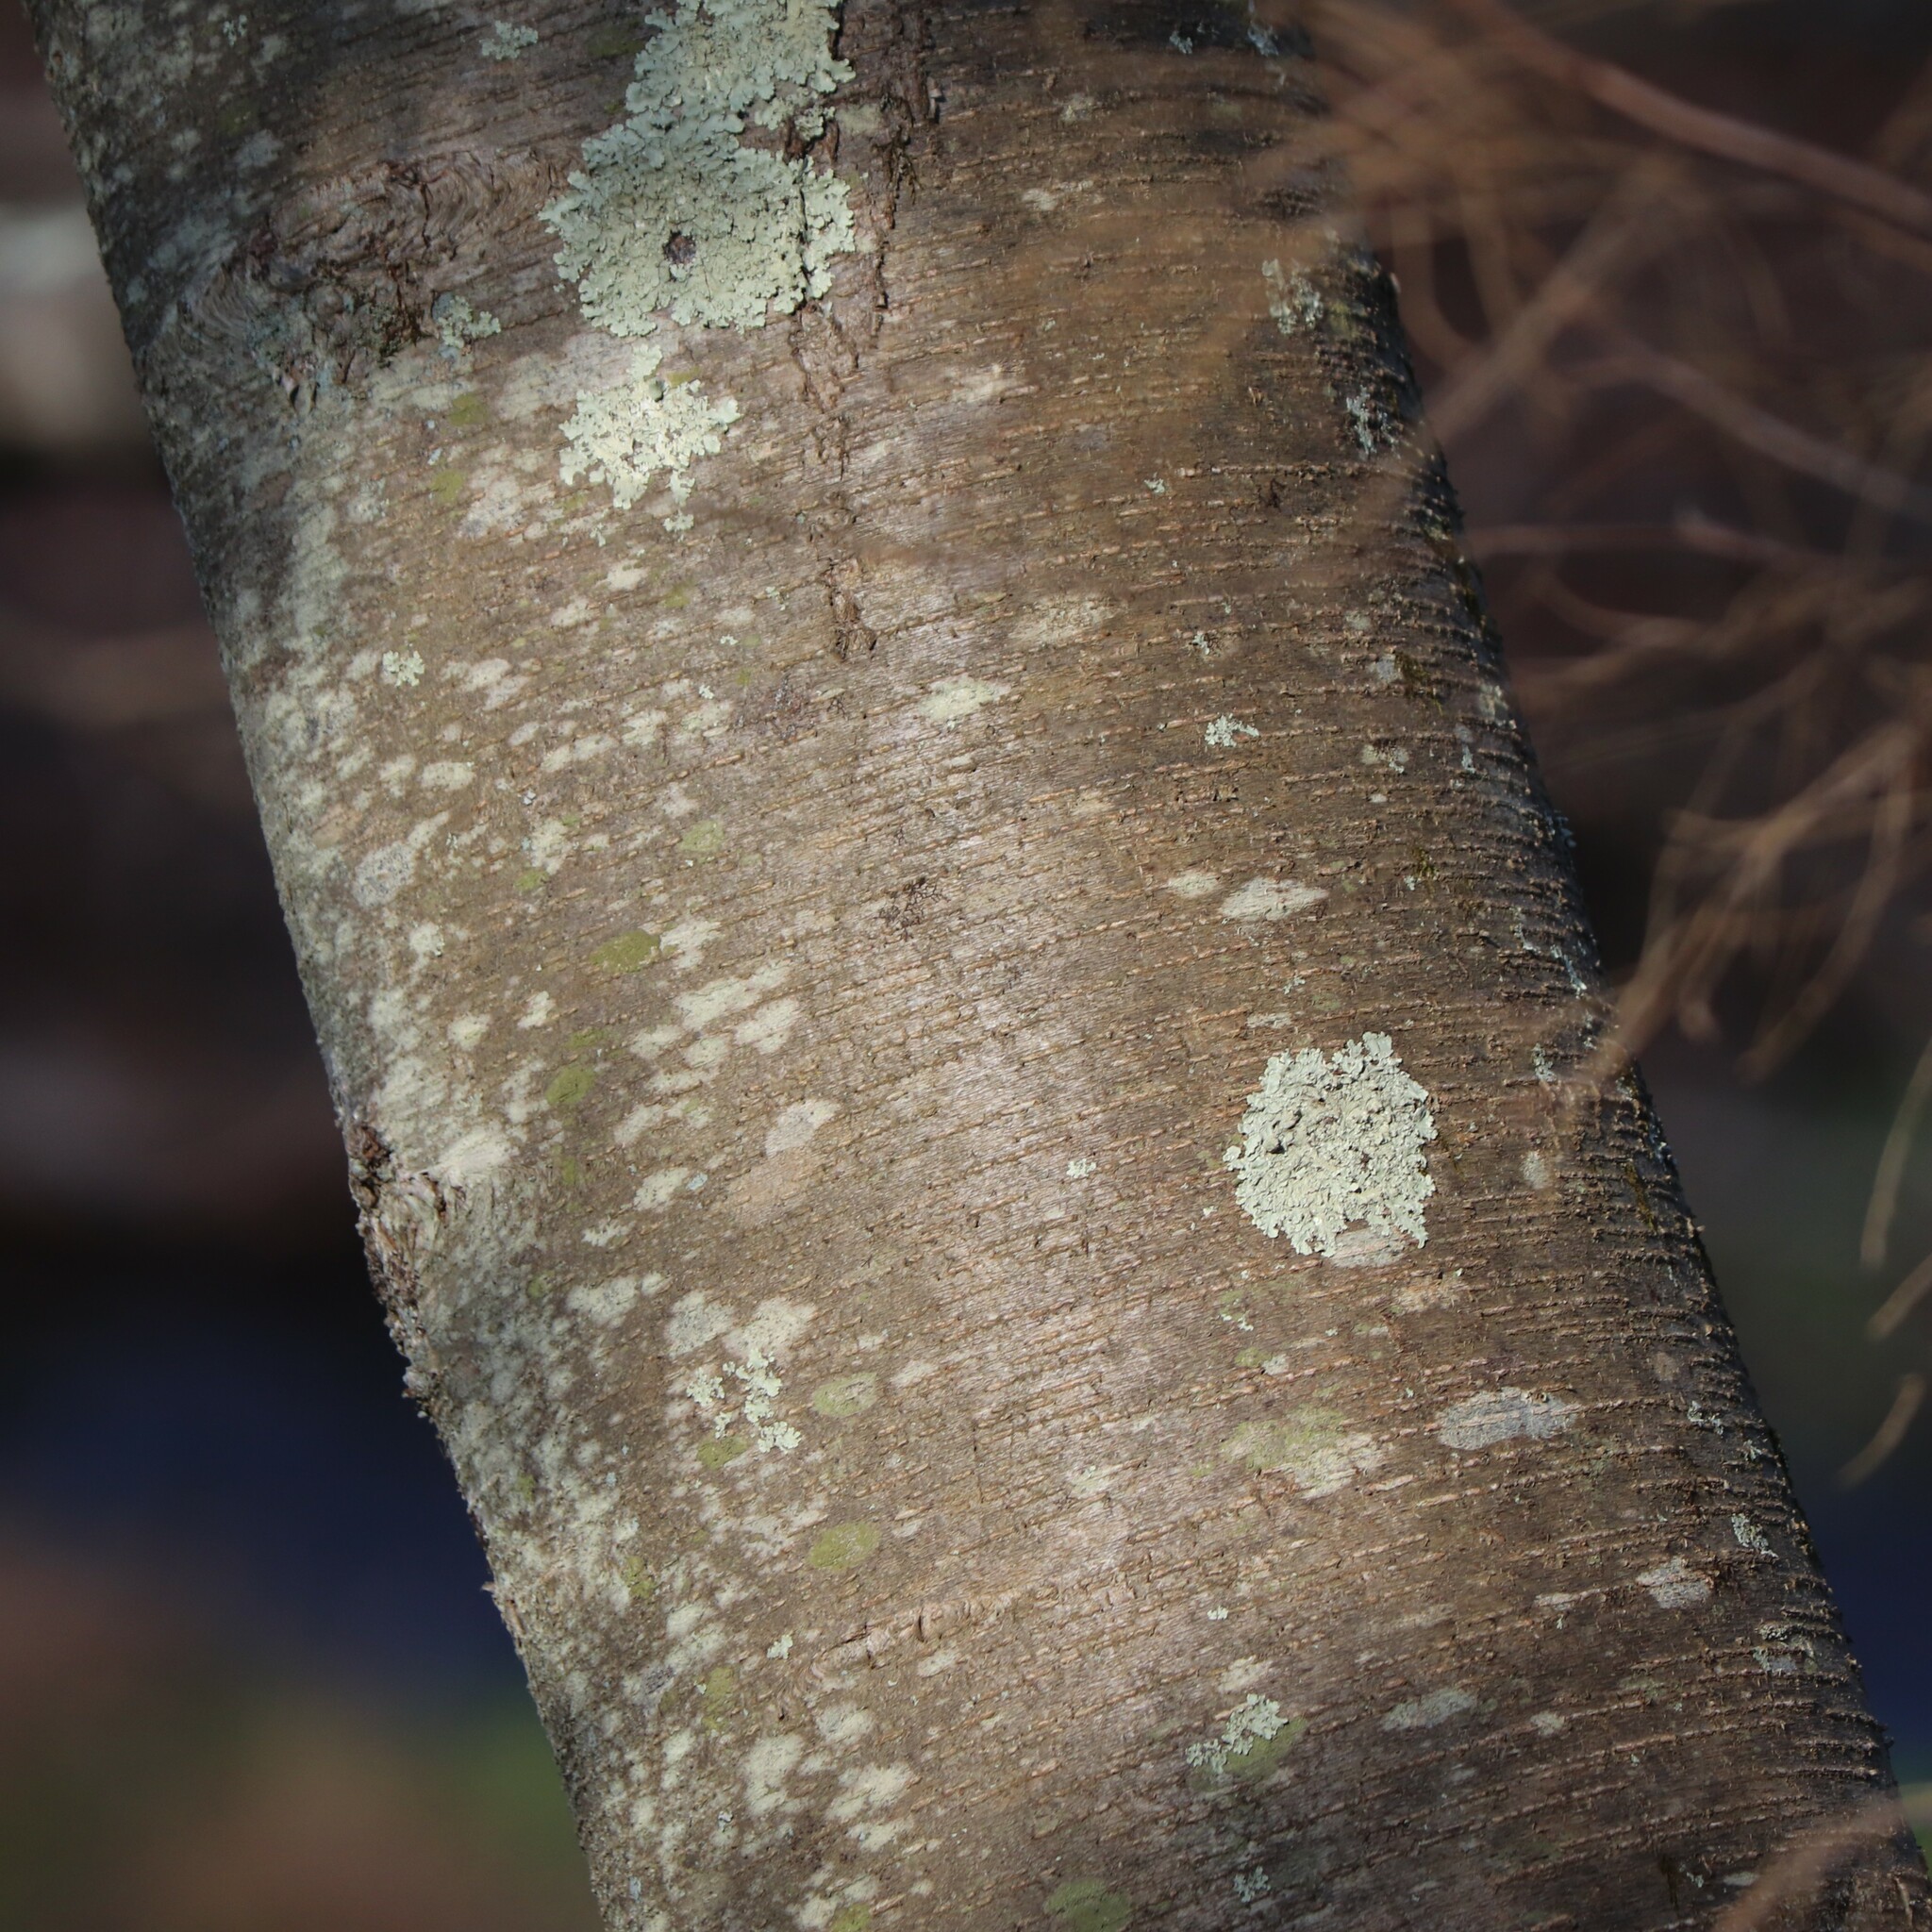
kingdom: Plantae
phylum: Tracheophyta
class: Magnoliopsida
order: Fagales
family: Betulaceae
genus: Betula
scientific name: Betula lenta
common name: Black birch
